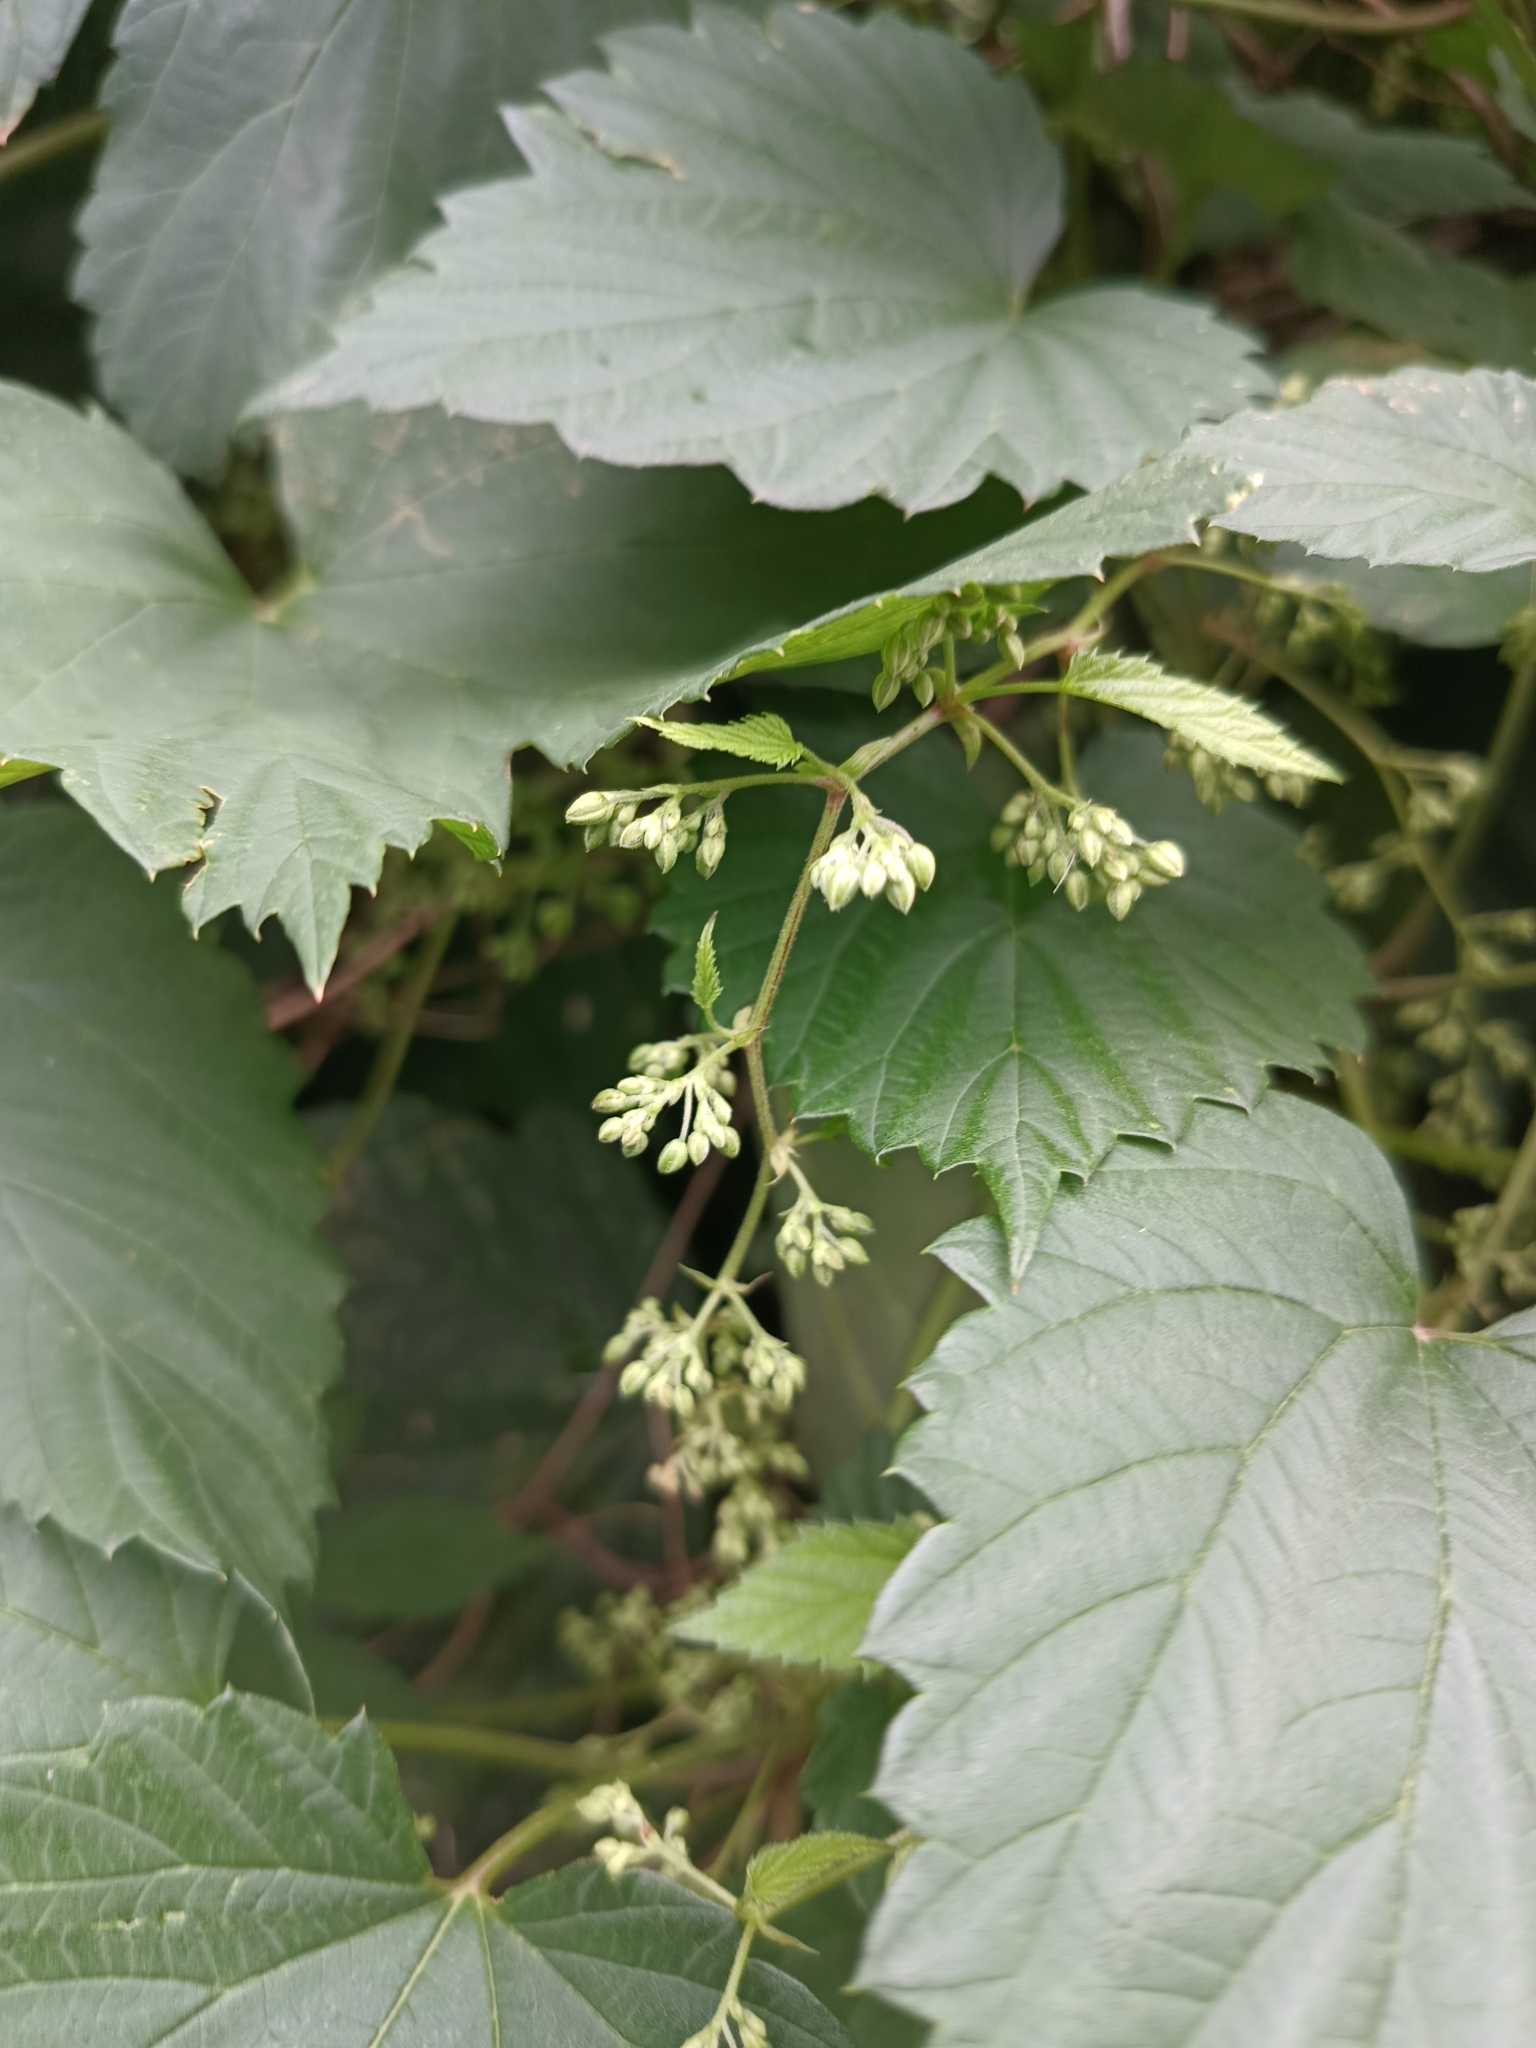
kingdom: Plantae
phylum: Tracheophyta
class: Magnoliopsida
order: Rosales
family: Cannabaceae
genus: Humulus
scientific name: Humulus lupulus
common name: Hop
